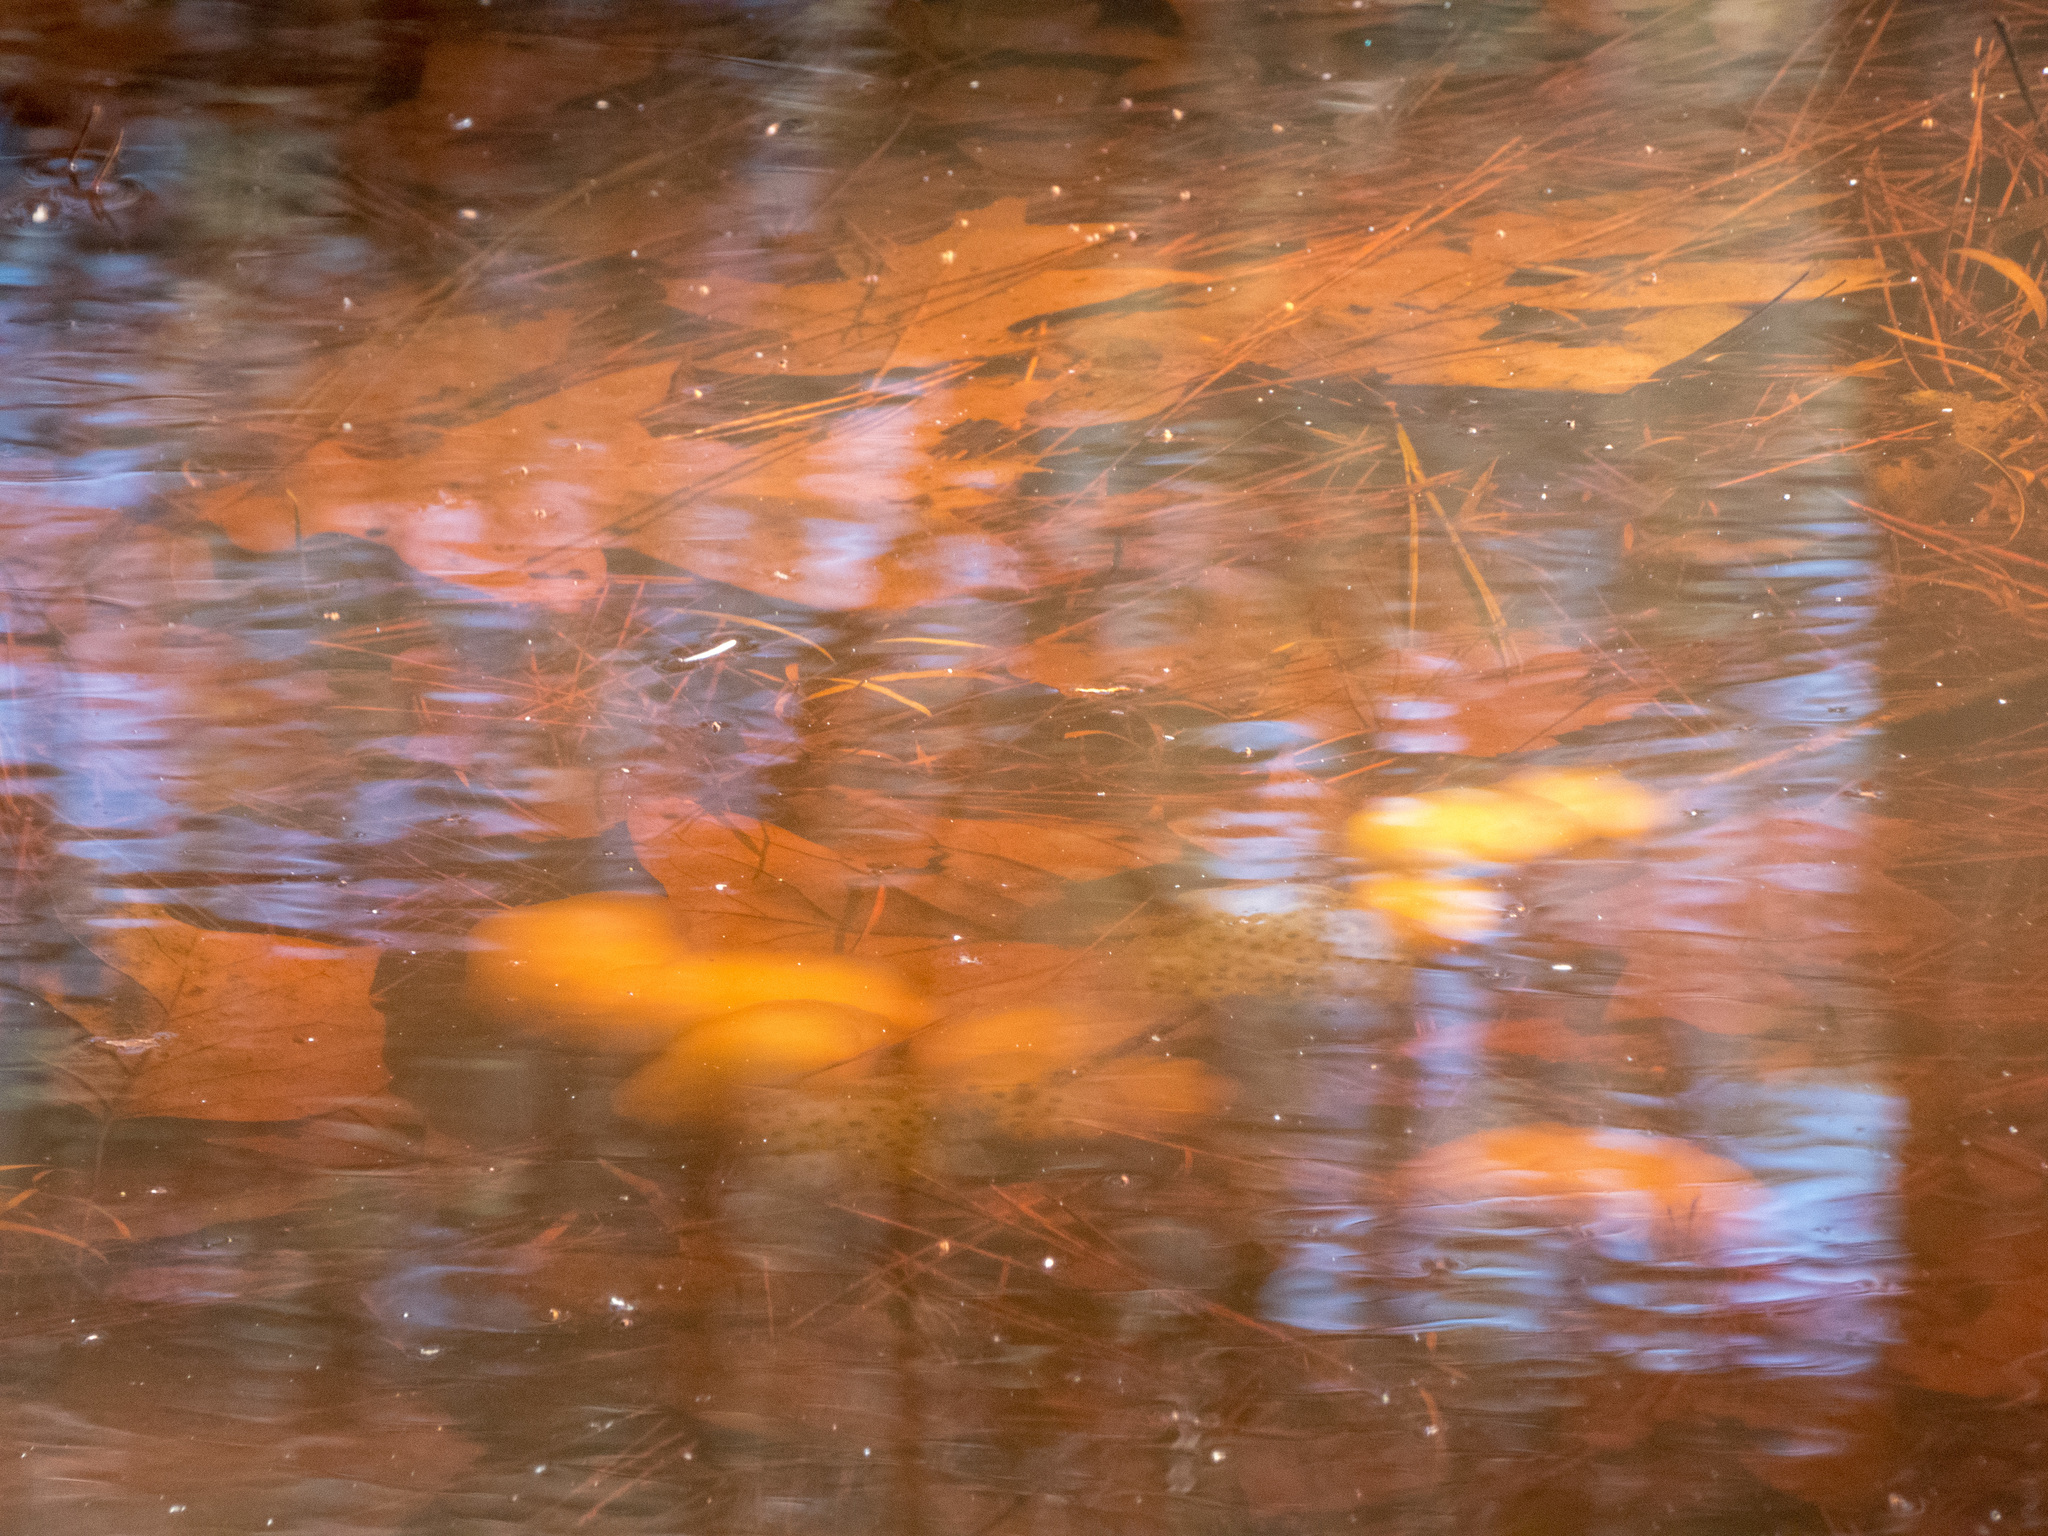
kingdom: Animalia
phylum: Chordata
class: Amphibia
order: Caudata
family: Ambystomatidae
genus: Ambystoma
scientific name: Ambystoma maculatum
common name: Spotted salamander
